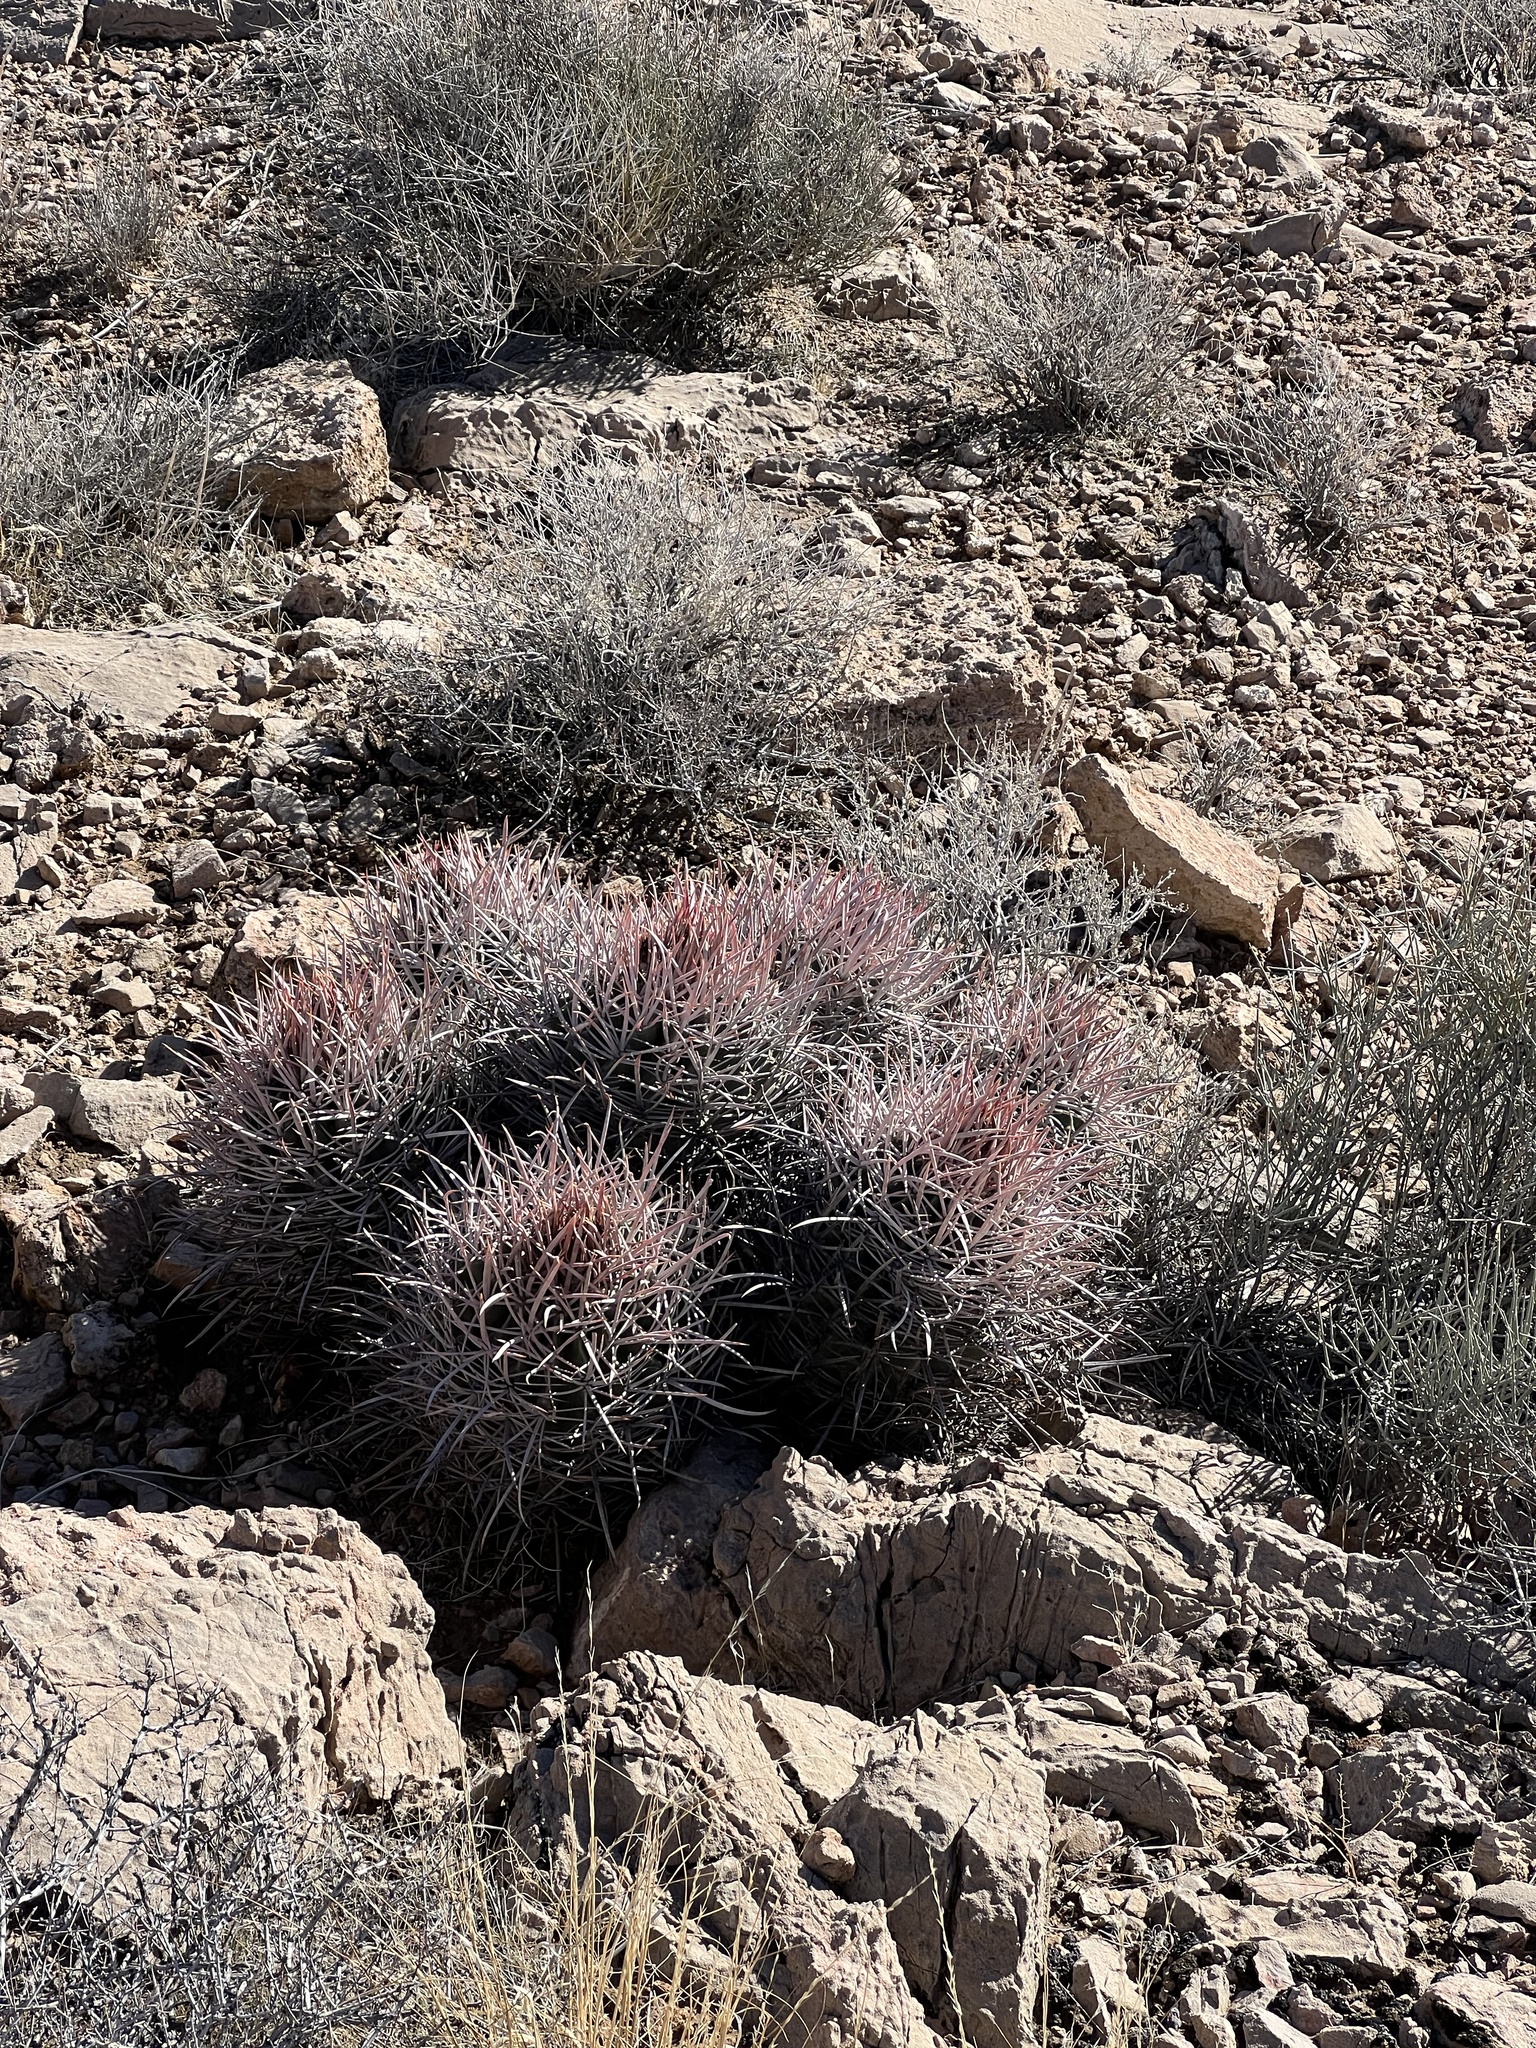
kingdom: Plantae
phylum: Tracheophyta
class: Magnoliopsida
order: Caryophyllales
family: Cactaceae
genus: Echinocactus
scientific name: Echinocactus polycephalus
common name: Cottontop cactus
